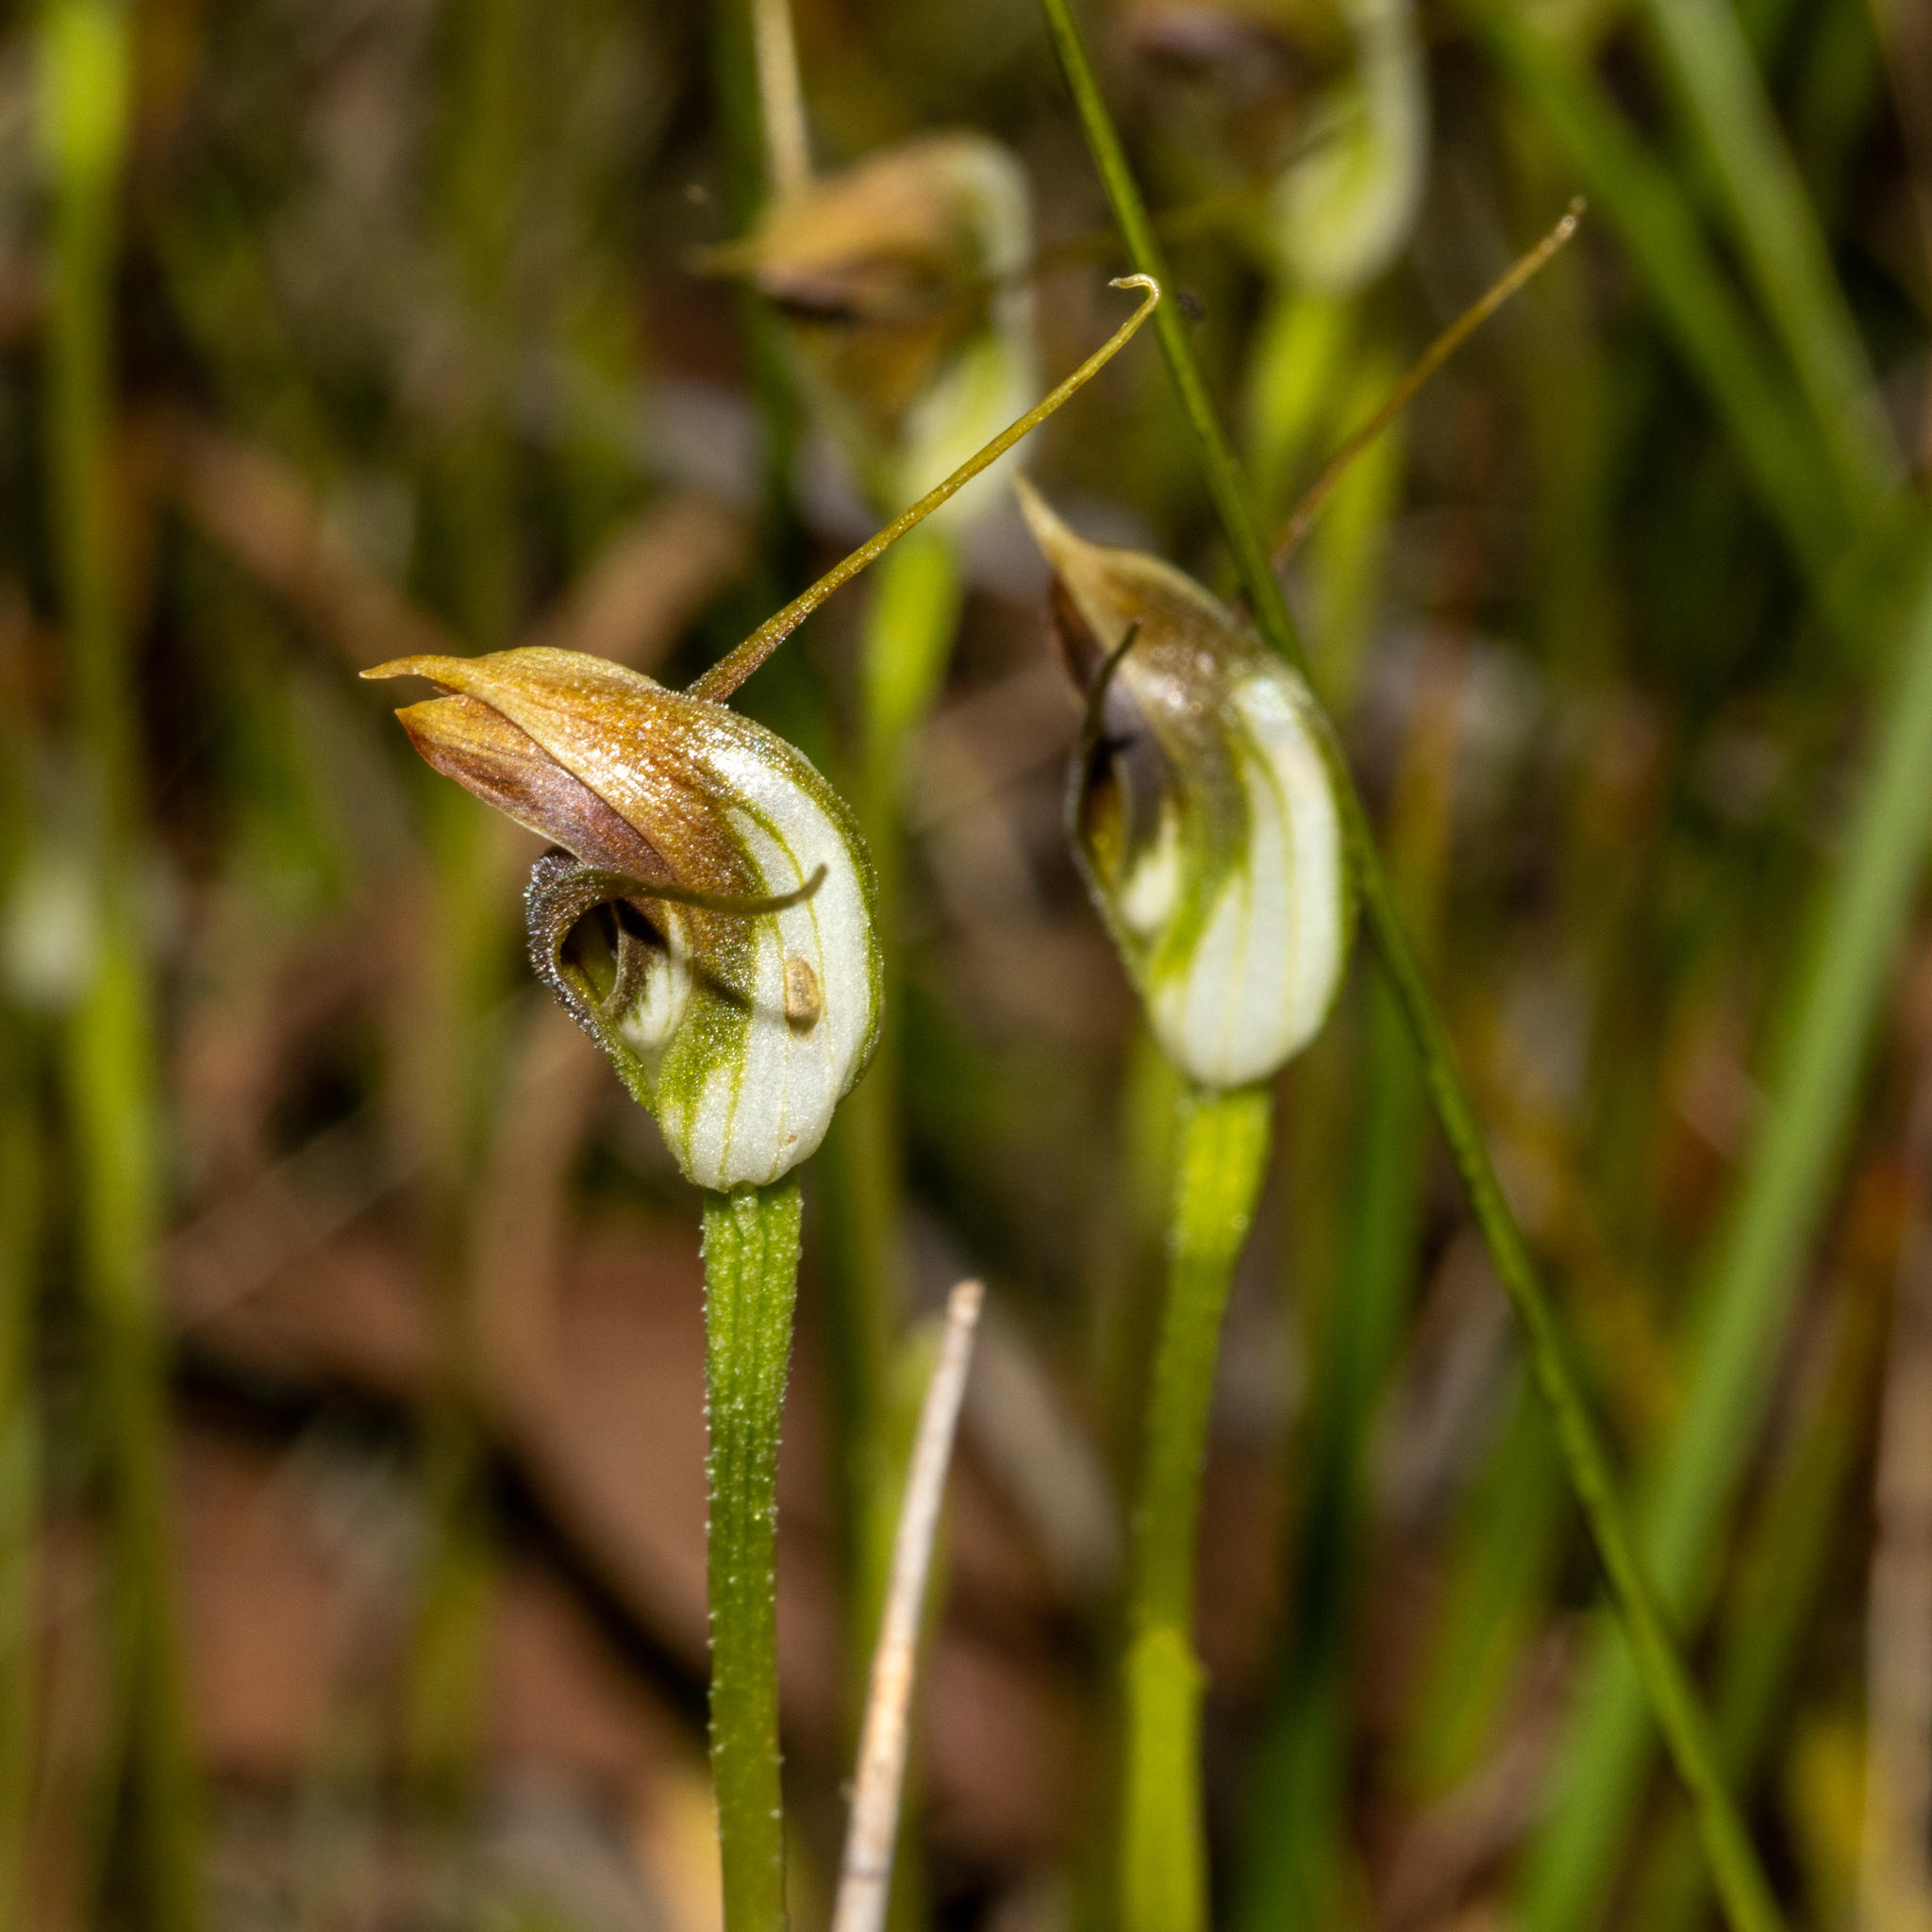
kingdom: Plantae
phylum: Tracheophyta
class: Liliopsida
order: Asparagales
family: Orchidaceae
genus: Pterostylis
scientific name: Pterostylis pedunculata
